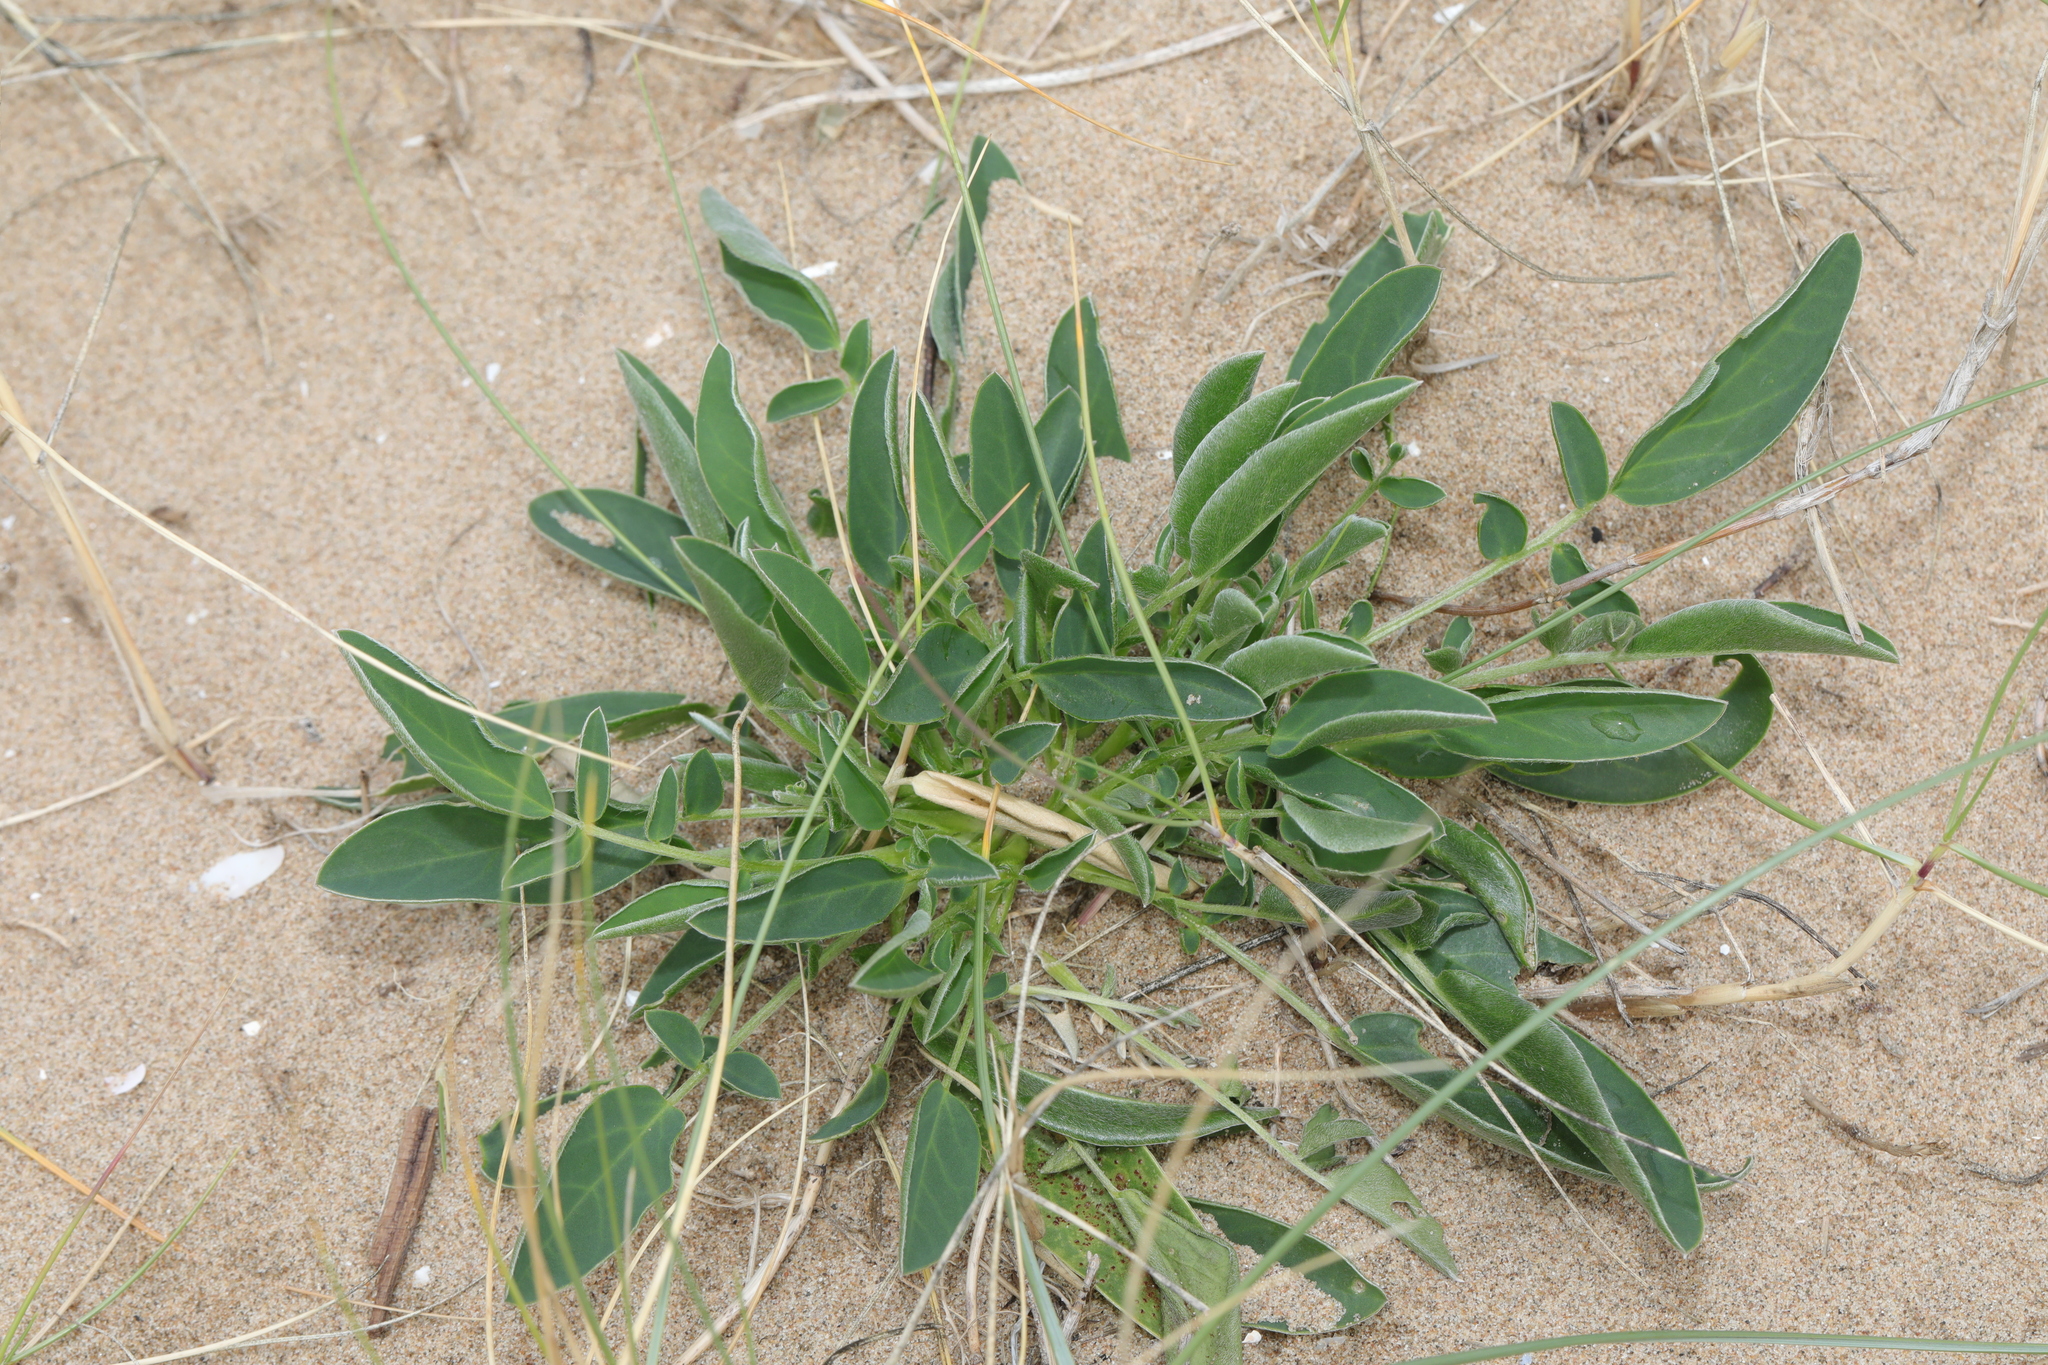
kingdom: Plantae
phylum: Tracheophyta
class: Magnoliopsida
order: Fabales
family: Fabaceae
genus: Anthyllis
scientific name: Anthyllis vulneraria
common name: Kidney vetch
